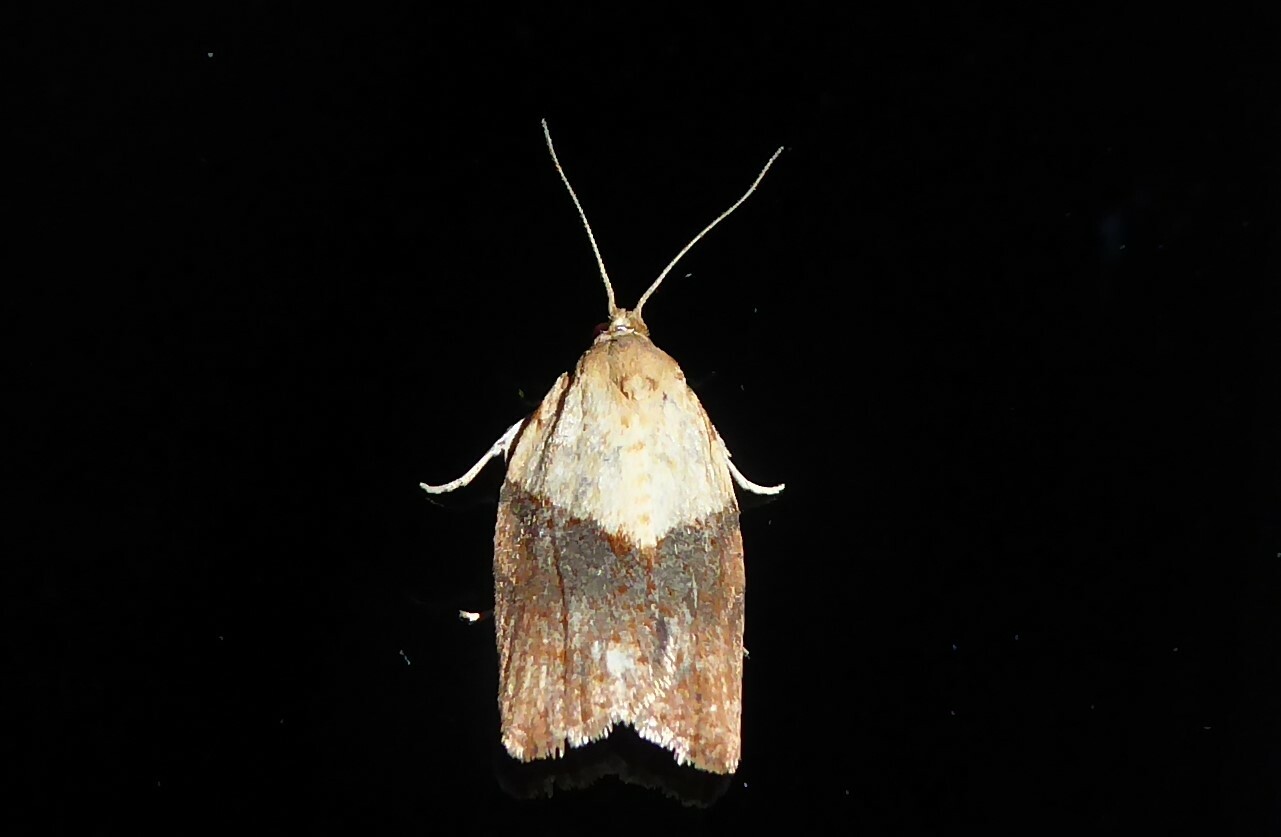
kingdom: Animalia
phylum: Arthropoda
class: Insecta
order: Lepidoptera
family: Tortricidae
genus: Epiphyas
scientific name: Epiphyas postvittana
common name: Light brown apple moth
